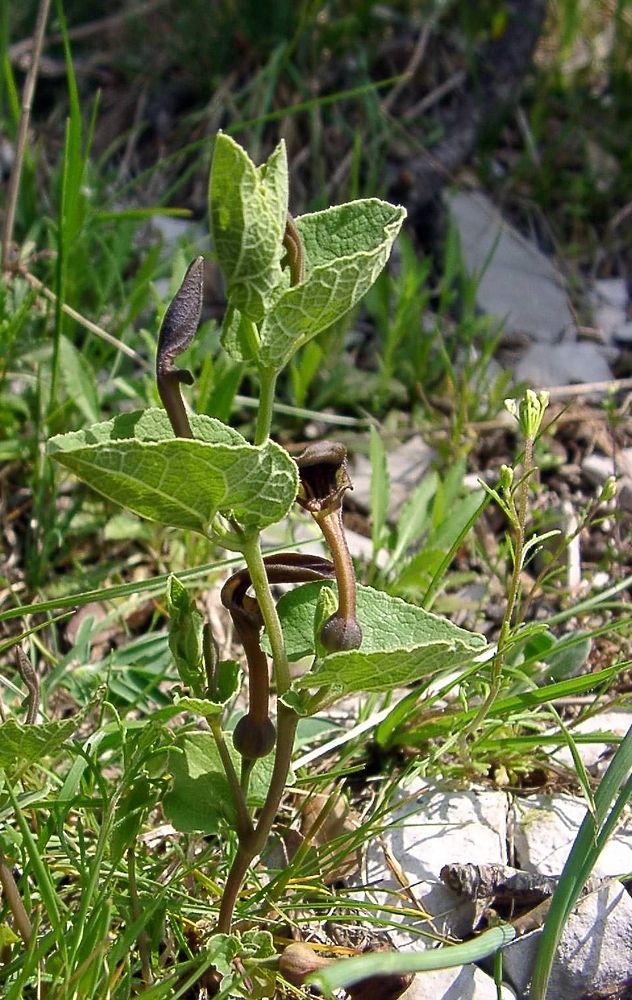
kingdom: Plantae
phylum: Tracheophyta
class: Magnoliopsida
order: Piperales
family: Aristolochiaceae
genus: Aristolochia
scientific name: Aristolochia pistolochia
